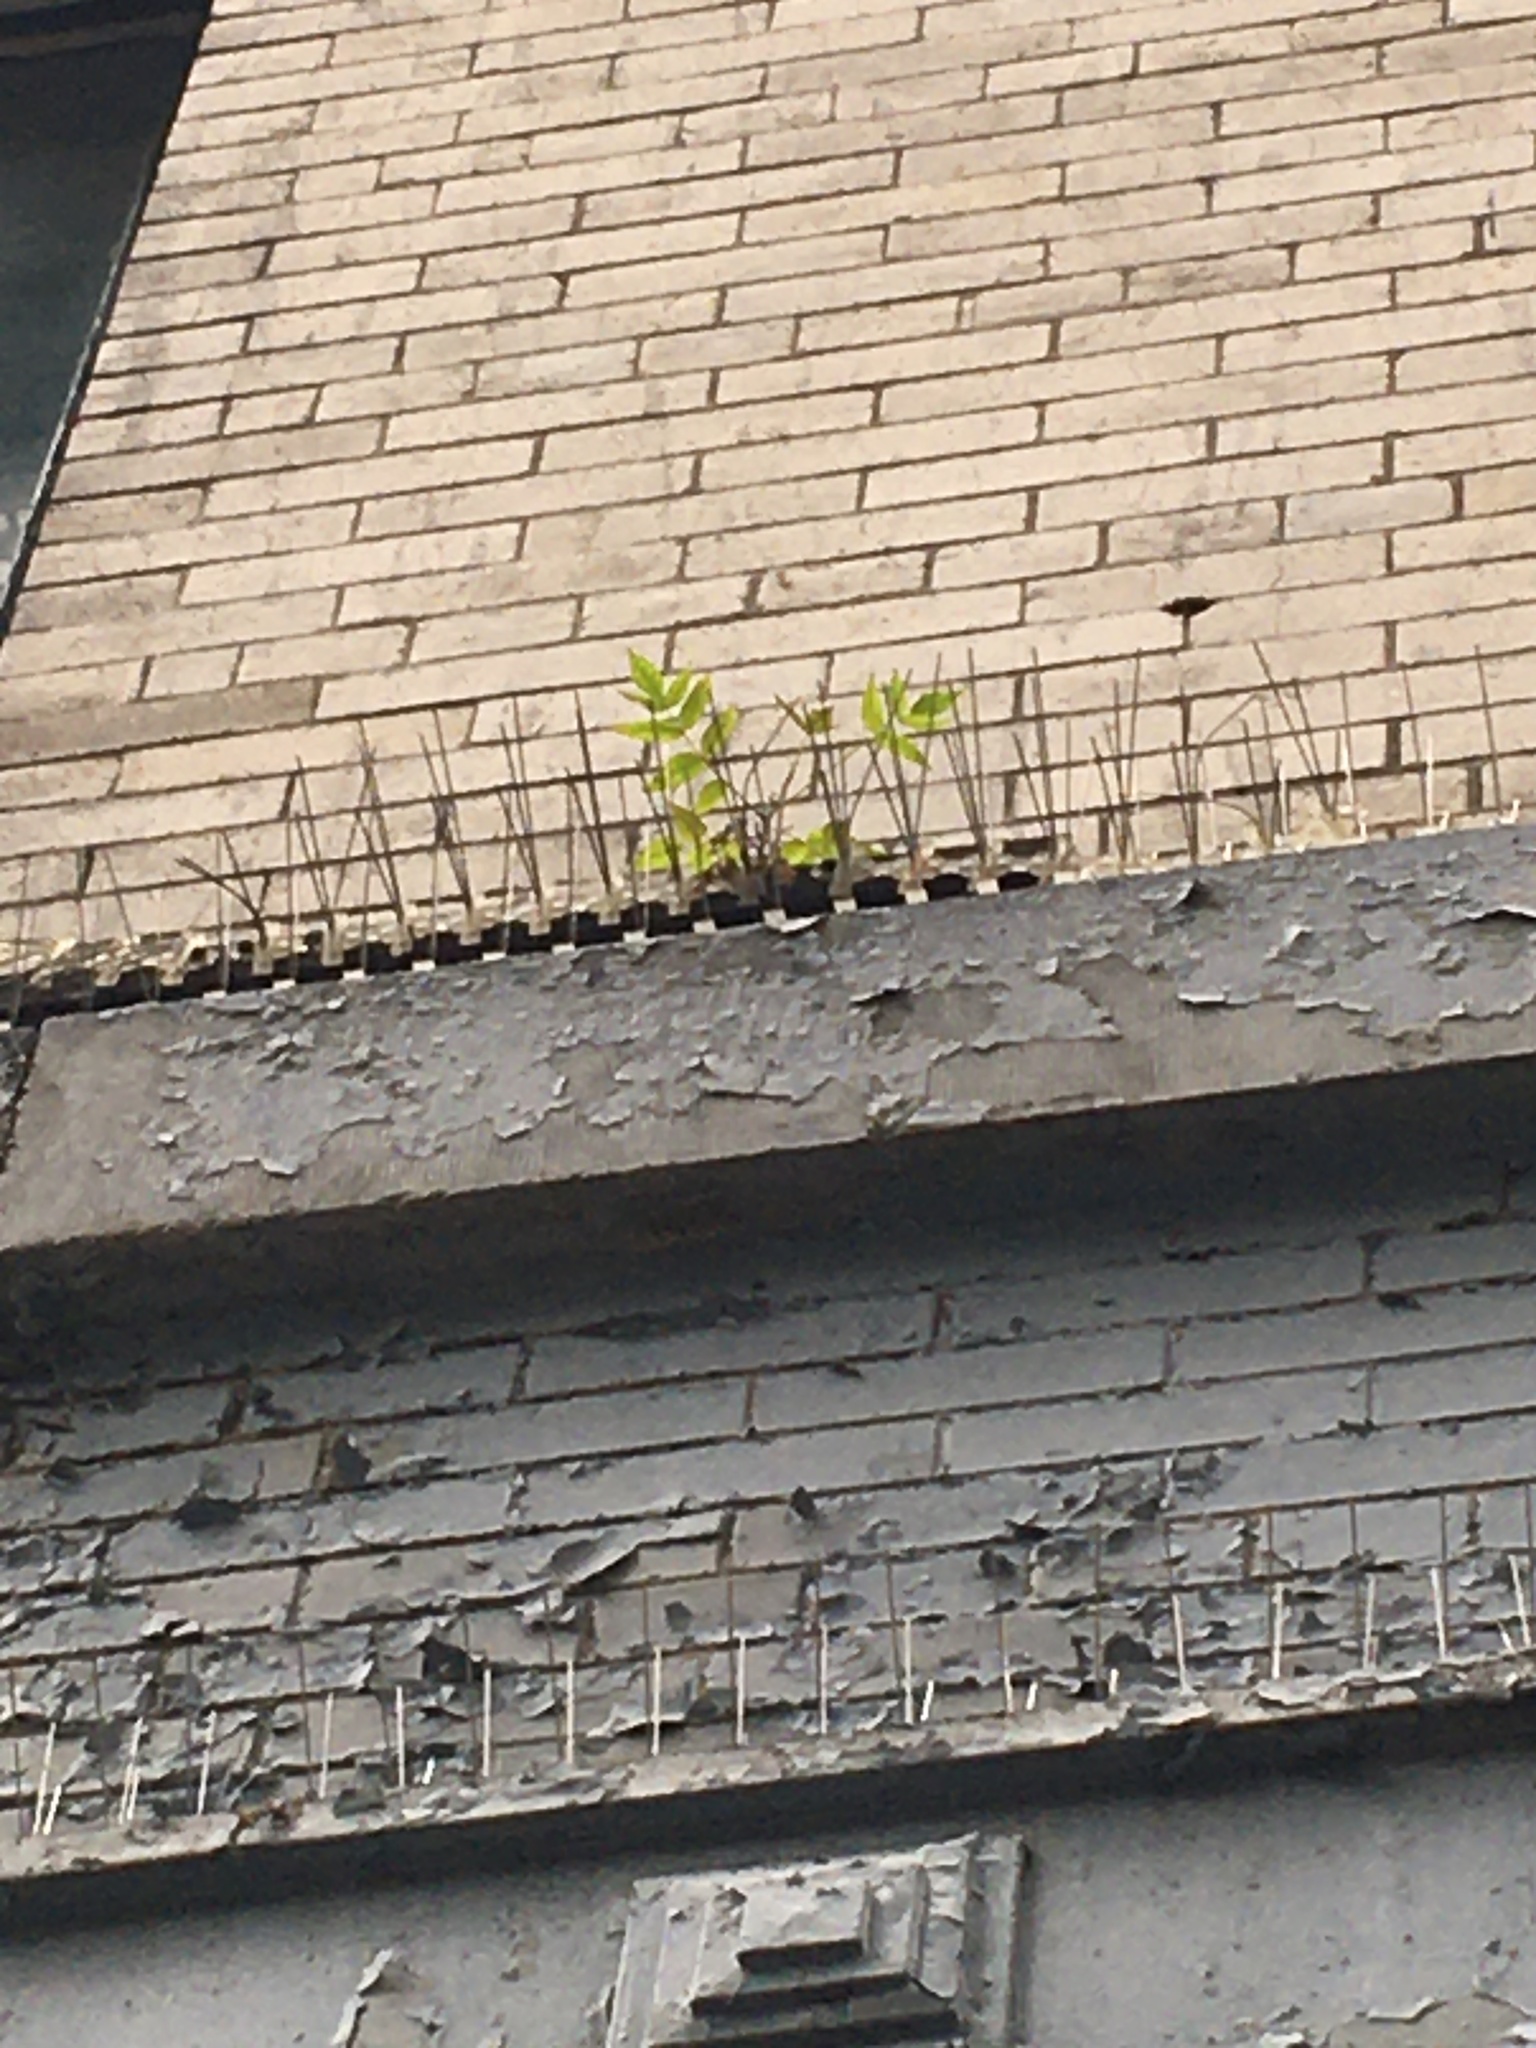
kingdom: Plantae
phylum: Tracheophyta
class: Magnoliopsida
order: Sapindales
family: Simaroubaceae
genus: Ailanthus
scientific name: Ailanthus altissima
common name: Tree-of-heaven
